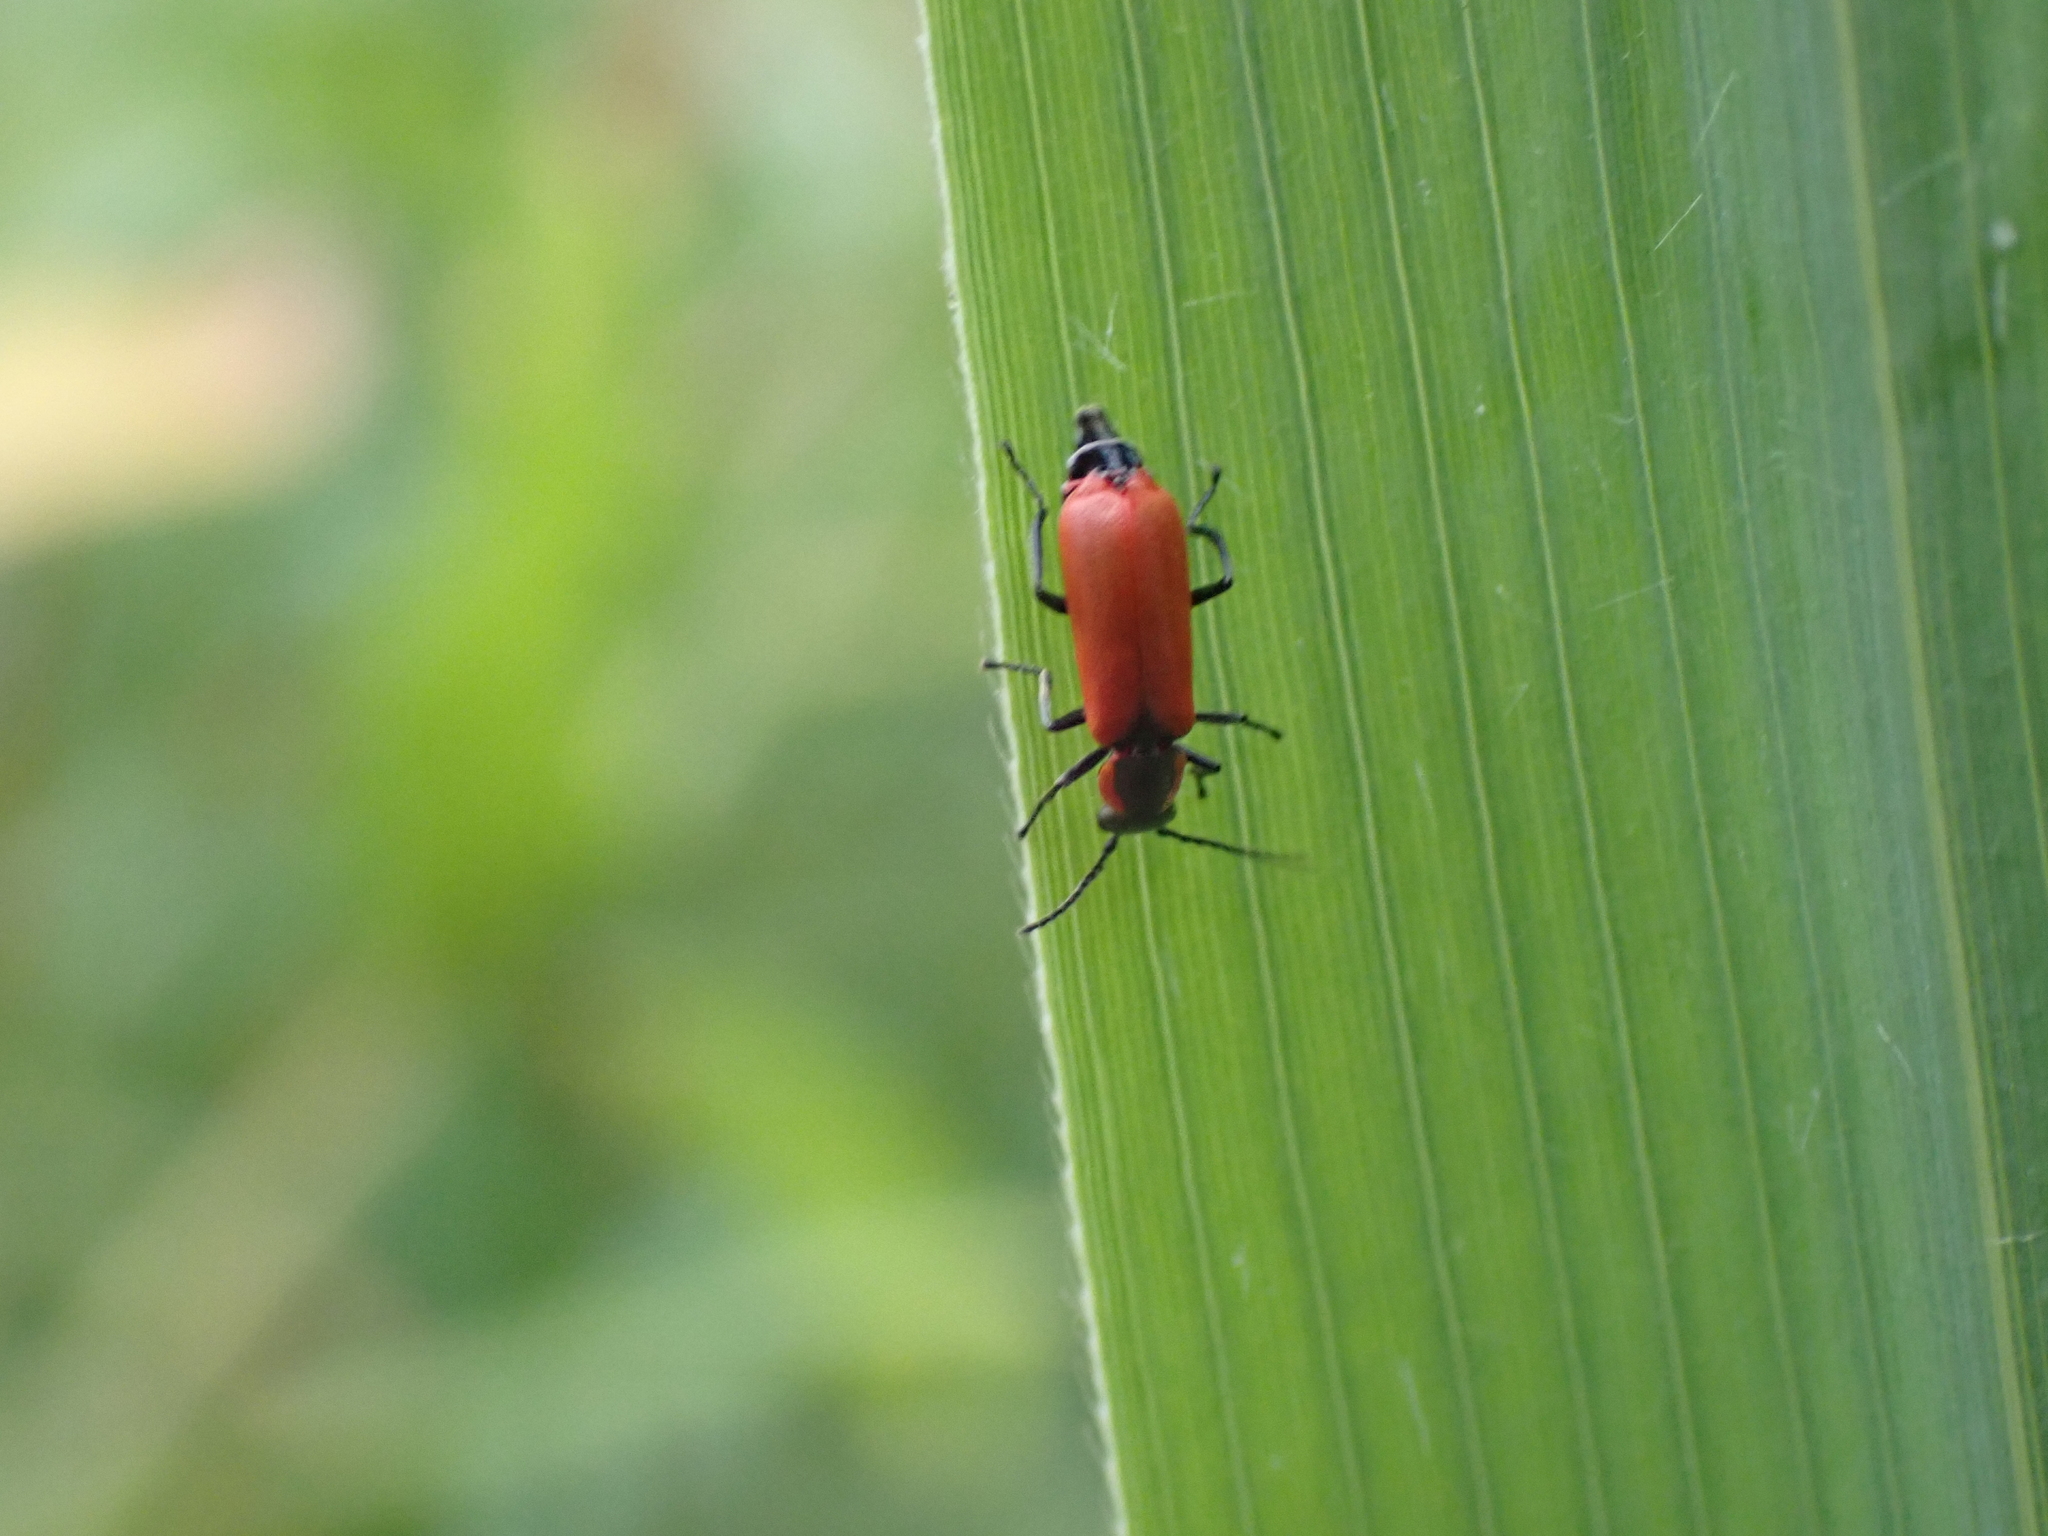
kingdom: Animalia
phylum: Arthropoda
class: Insecta
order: Coleoptera
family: Melyridae
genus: Anthocomus
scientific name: Anthocomus rufus
